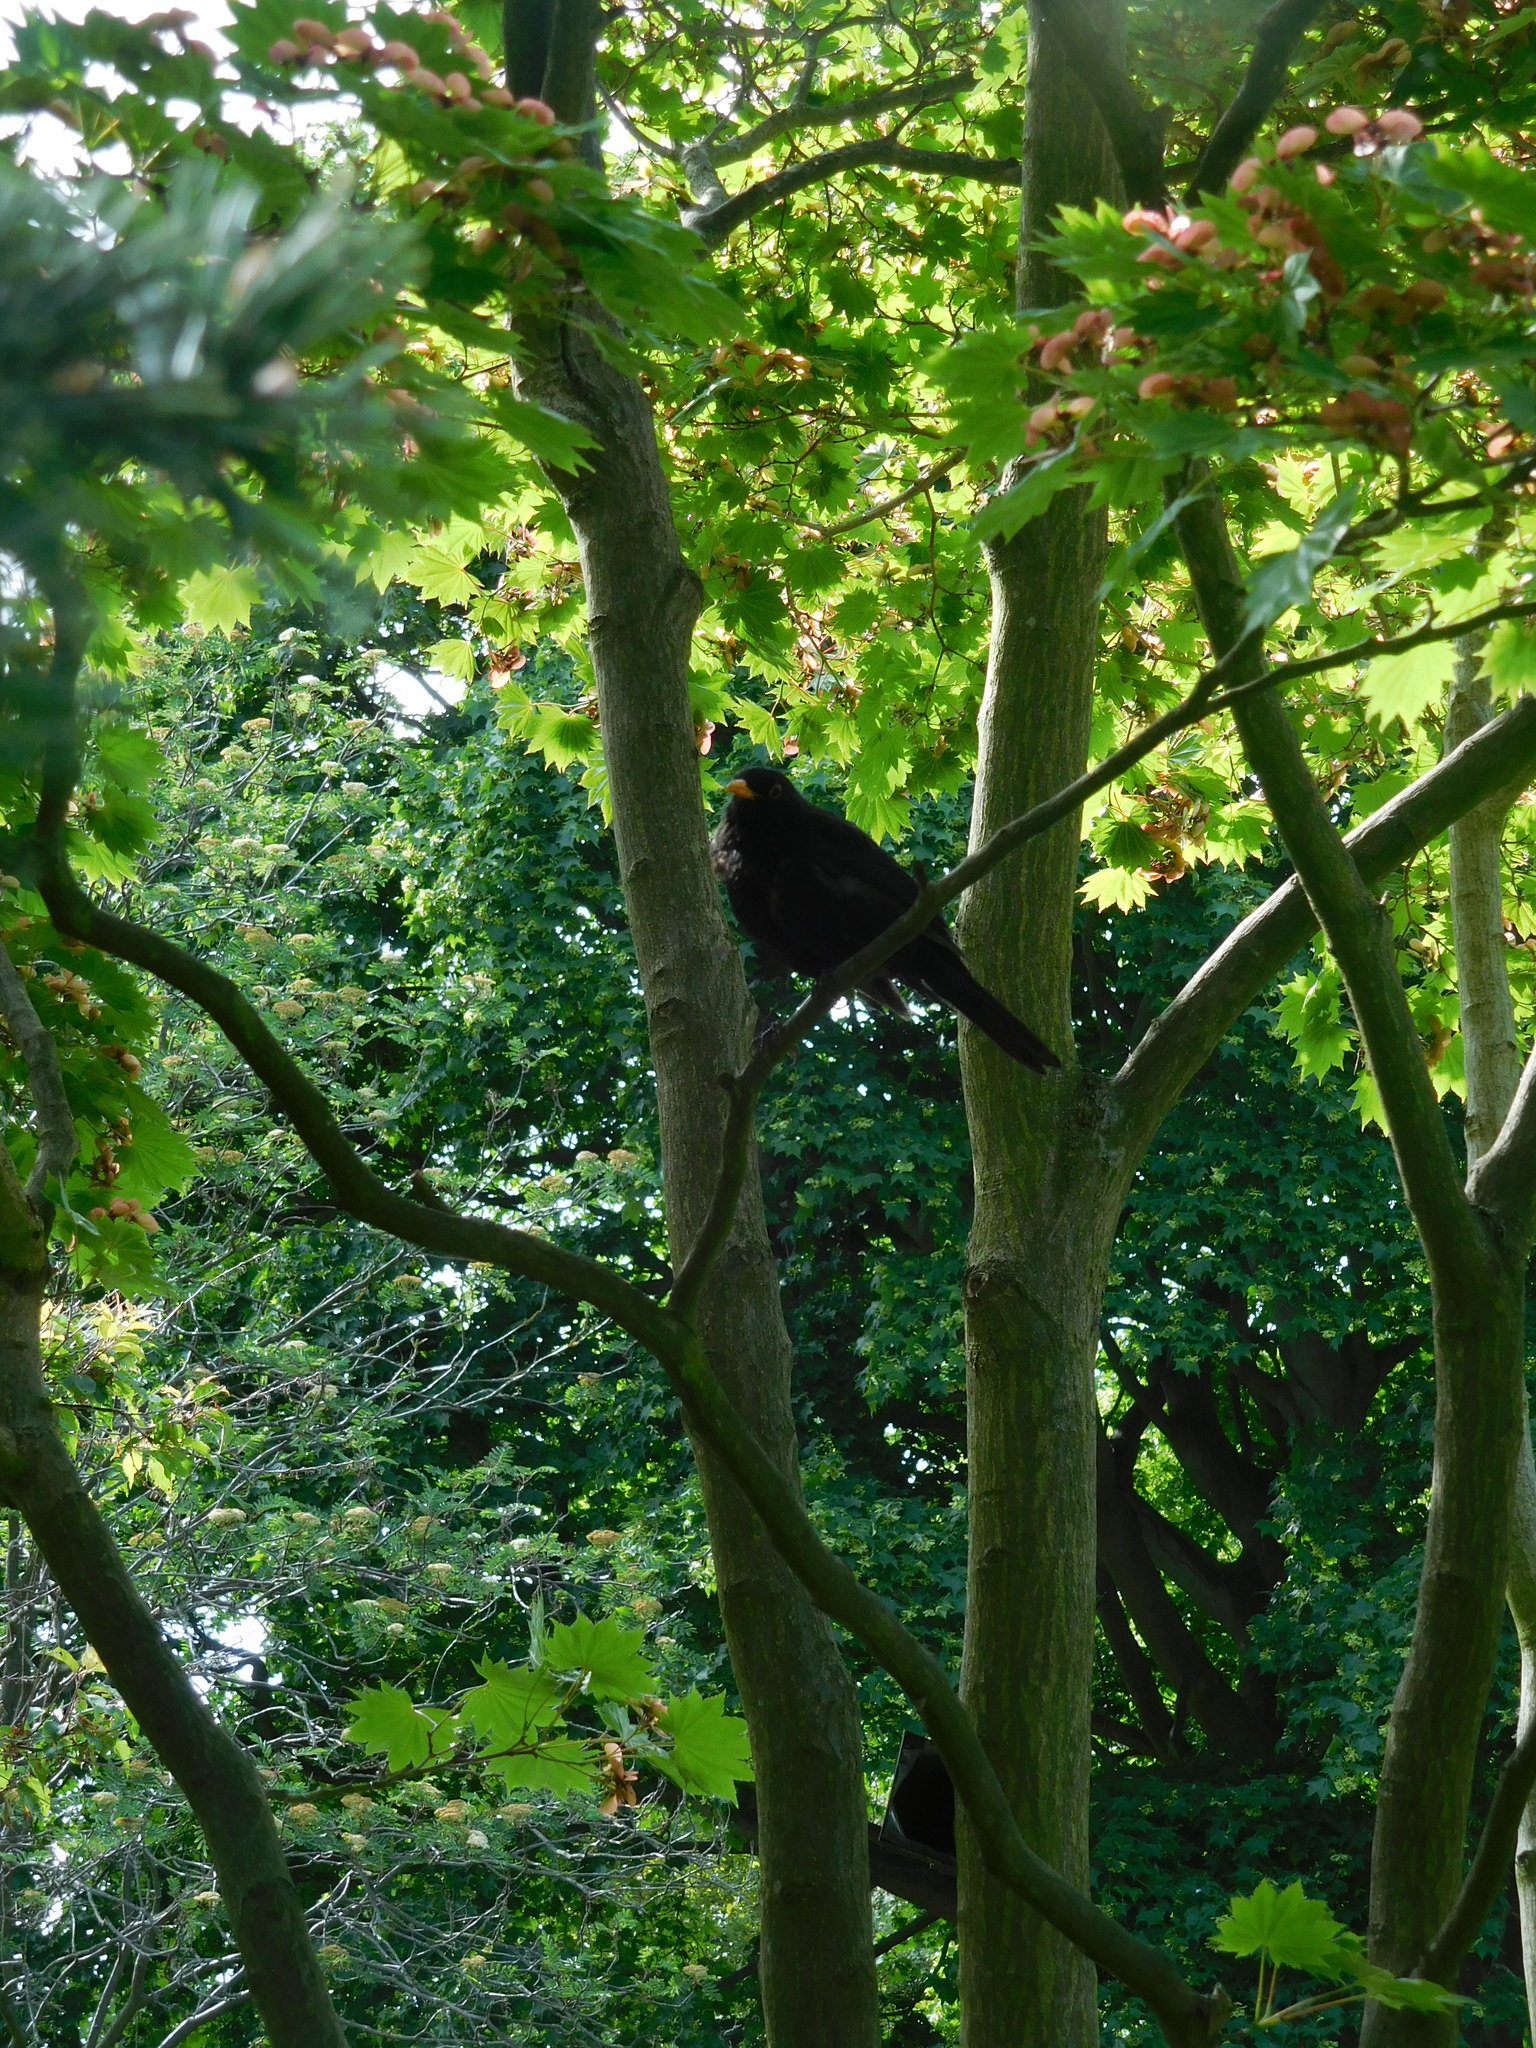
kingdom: Animalia
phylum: Chordata
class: Aves
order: Passeriformes
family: Turdidae
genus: Turdus
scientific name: Turdus merula
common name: Common blackbird
